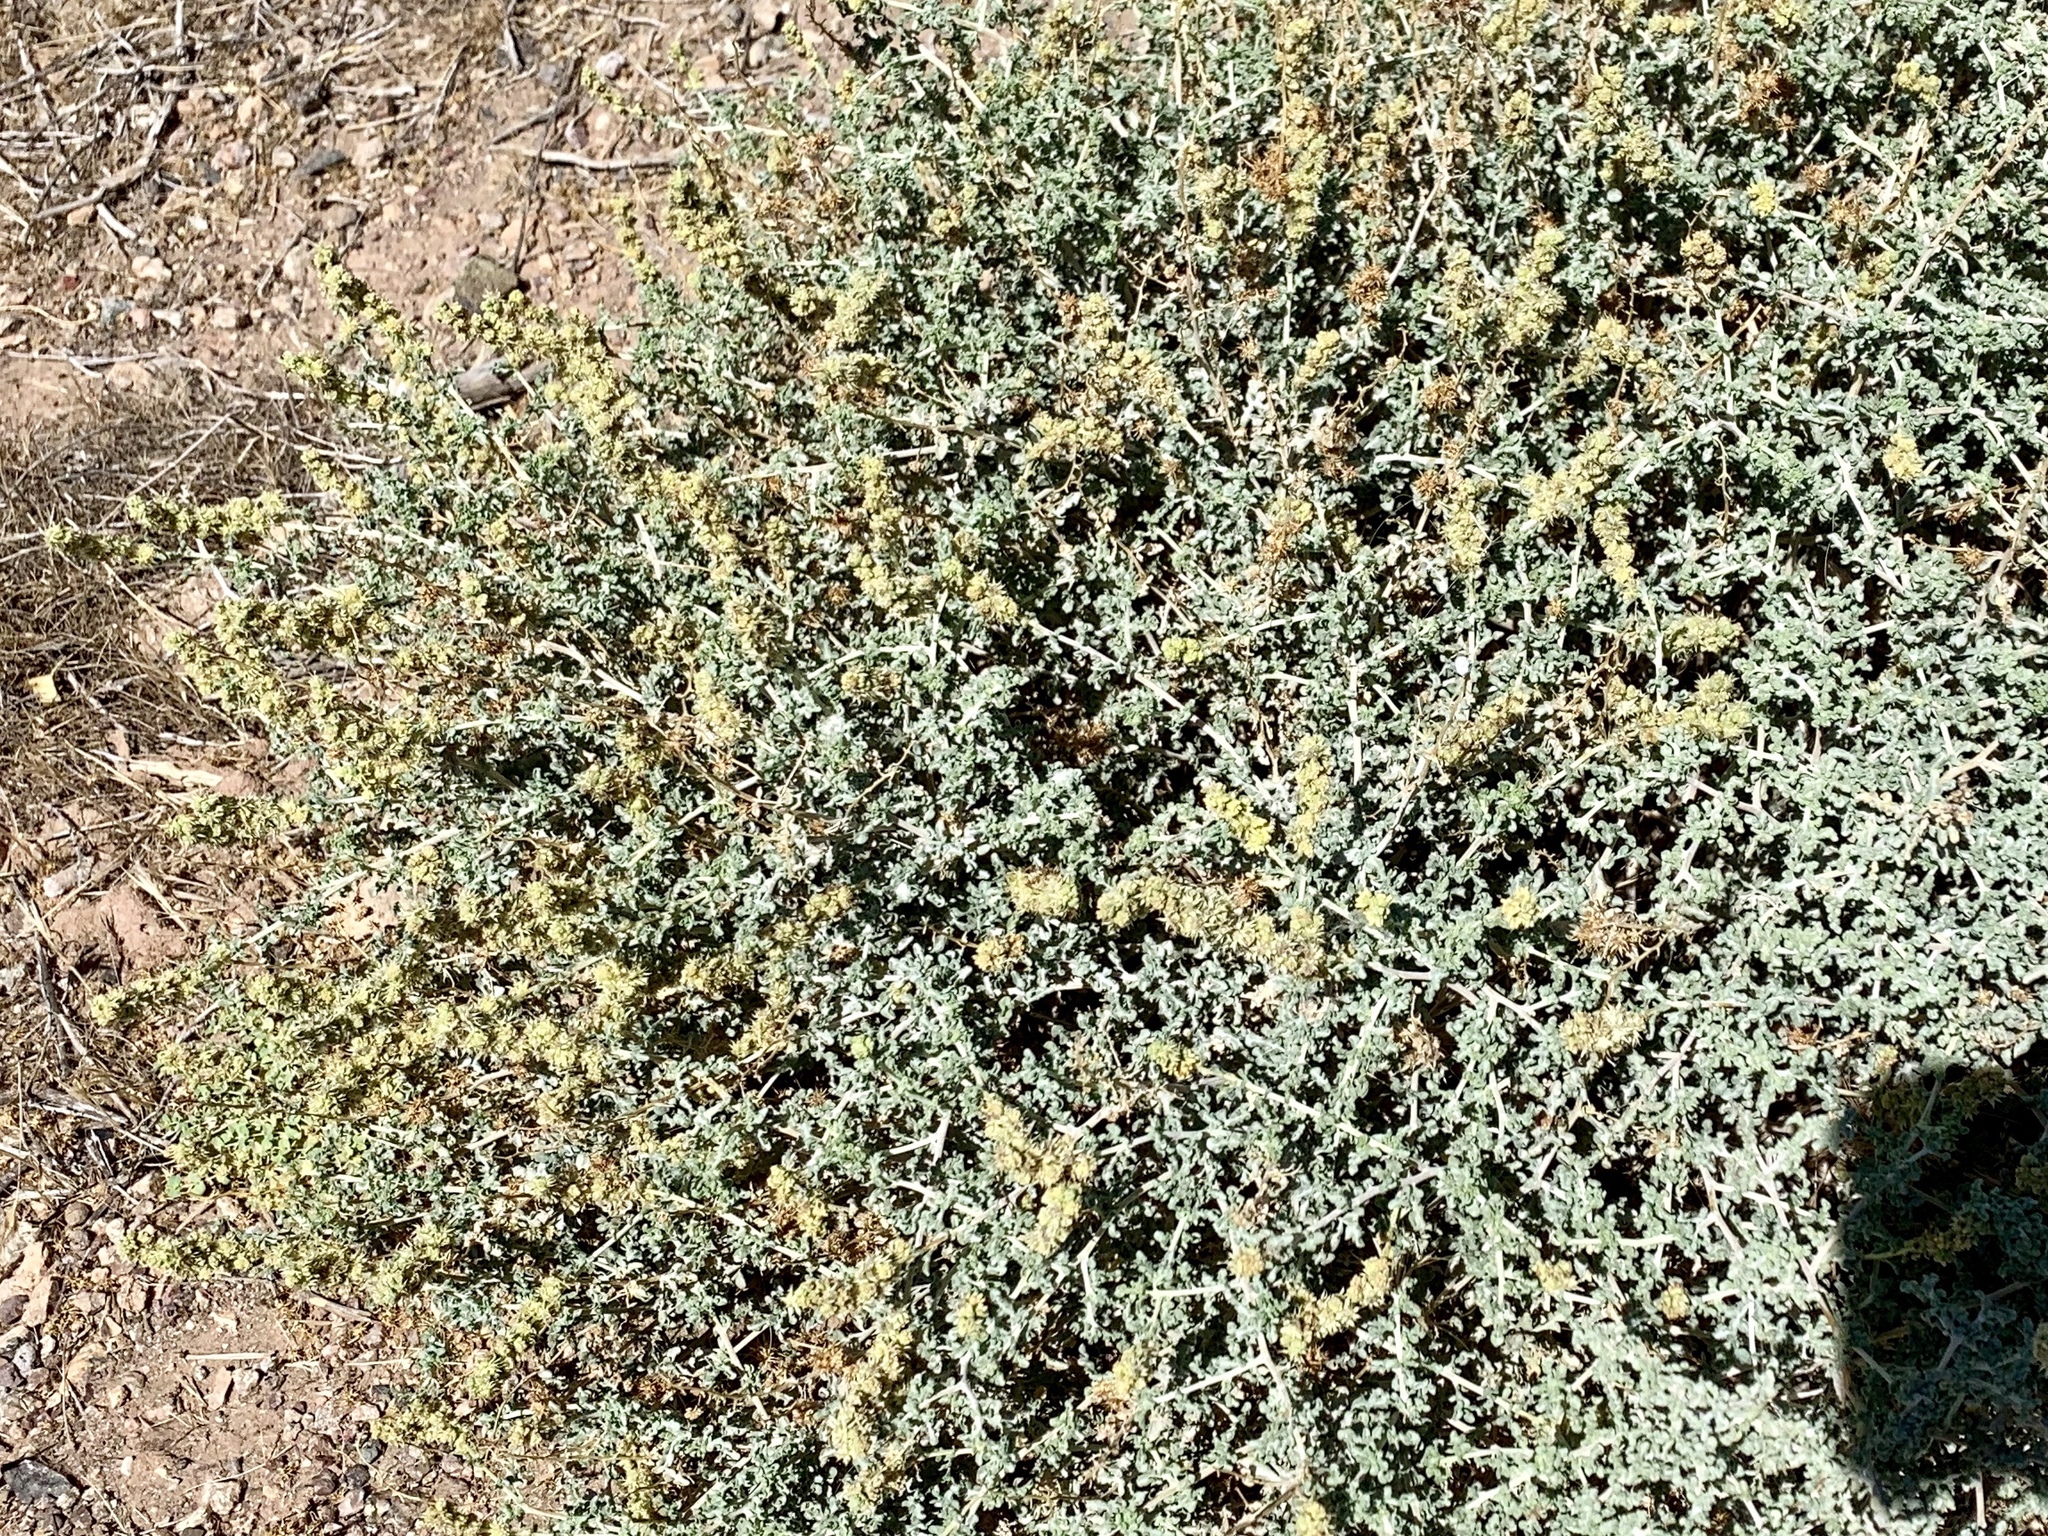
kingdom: Plantae
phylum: Tracheophyta
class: Magnoliopsida
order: Asterales
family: Asteraceae
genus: Ambrosia
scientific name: Ambrosia dumosa
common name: Bur-sage
